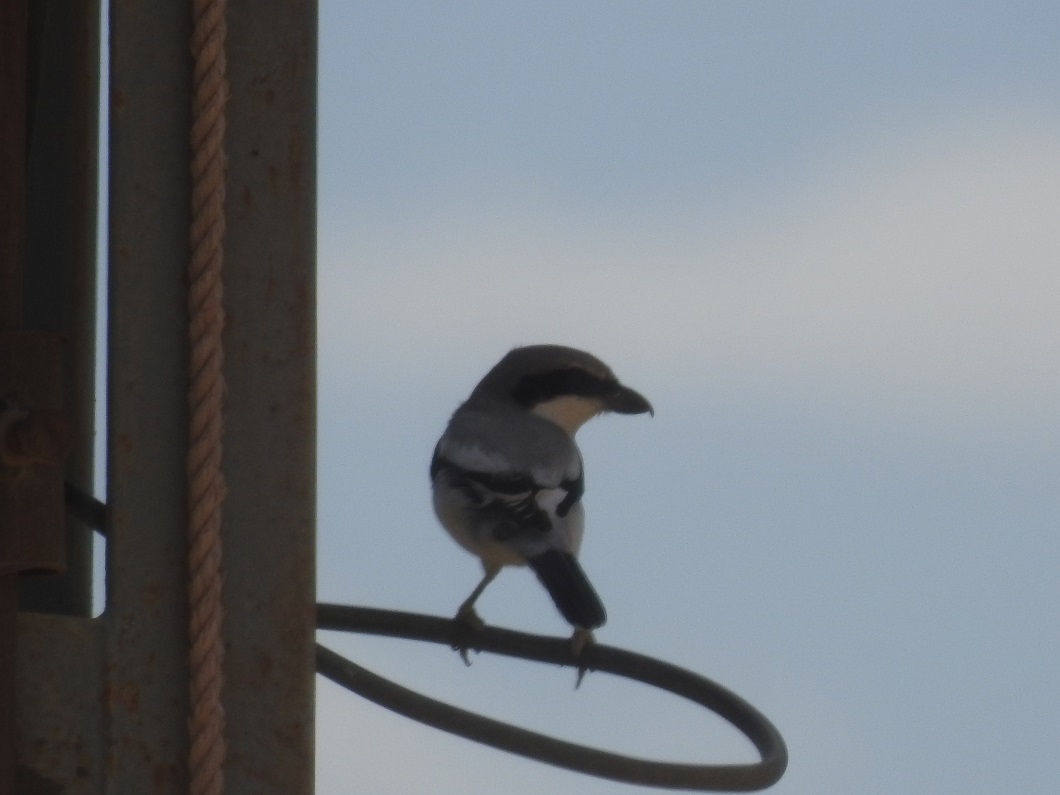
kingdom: Animalia
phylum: Chordata
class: Aves
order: Passeriformes
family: Laniidae
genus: Lanius
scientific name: Lanius excubitor
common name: Great grey shrike
